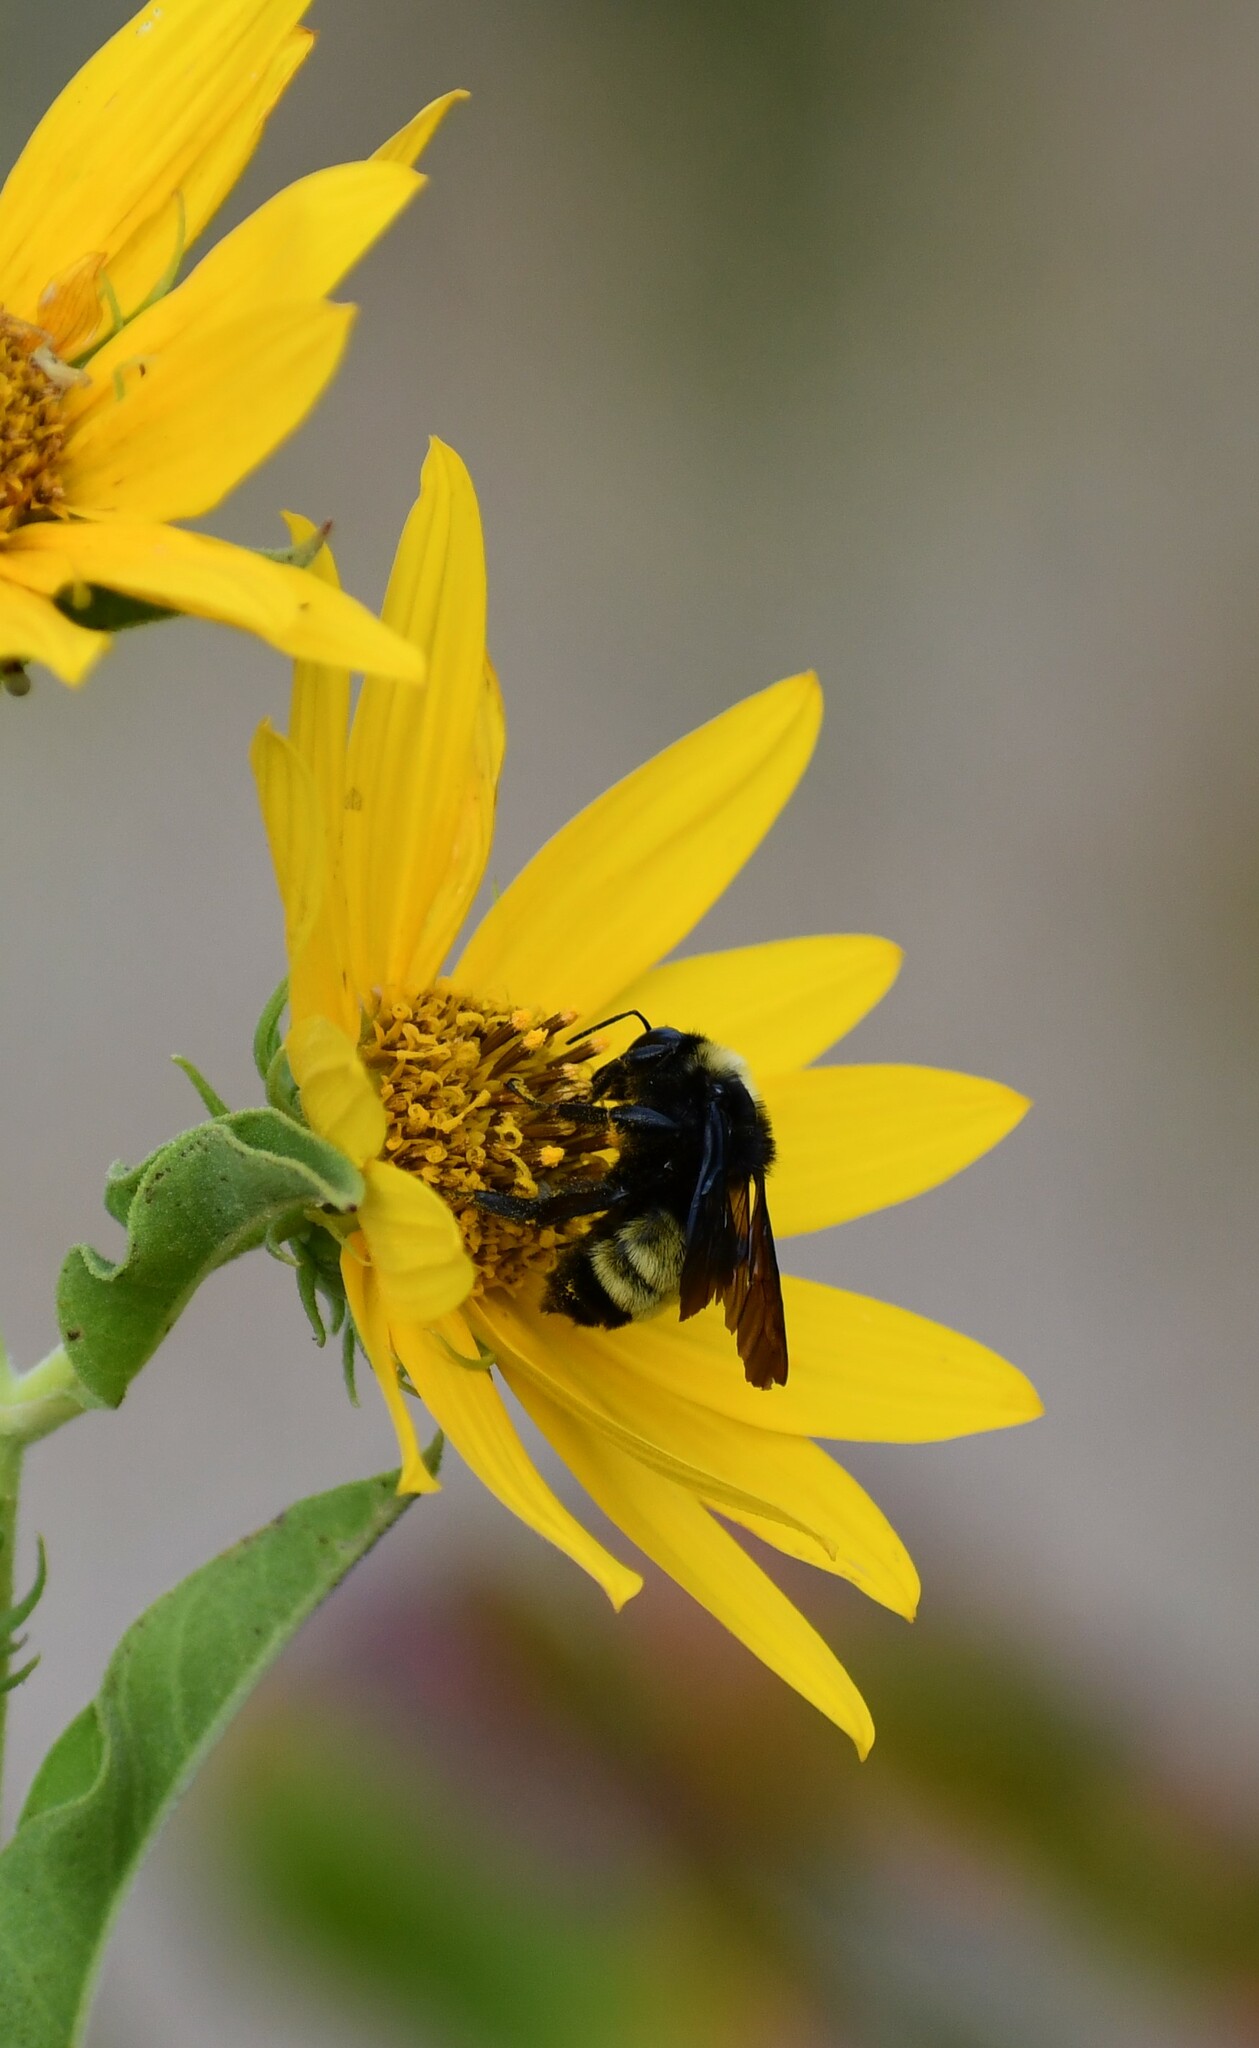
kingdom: Animalia
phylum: Arthropoda
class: Insecta
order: Hymenoptera
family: Apidae
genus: Bombus
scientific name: Bombus pensylvanicus
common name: Bumble bee
